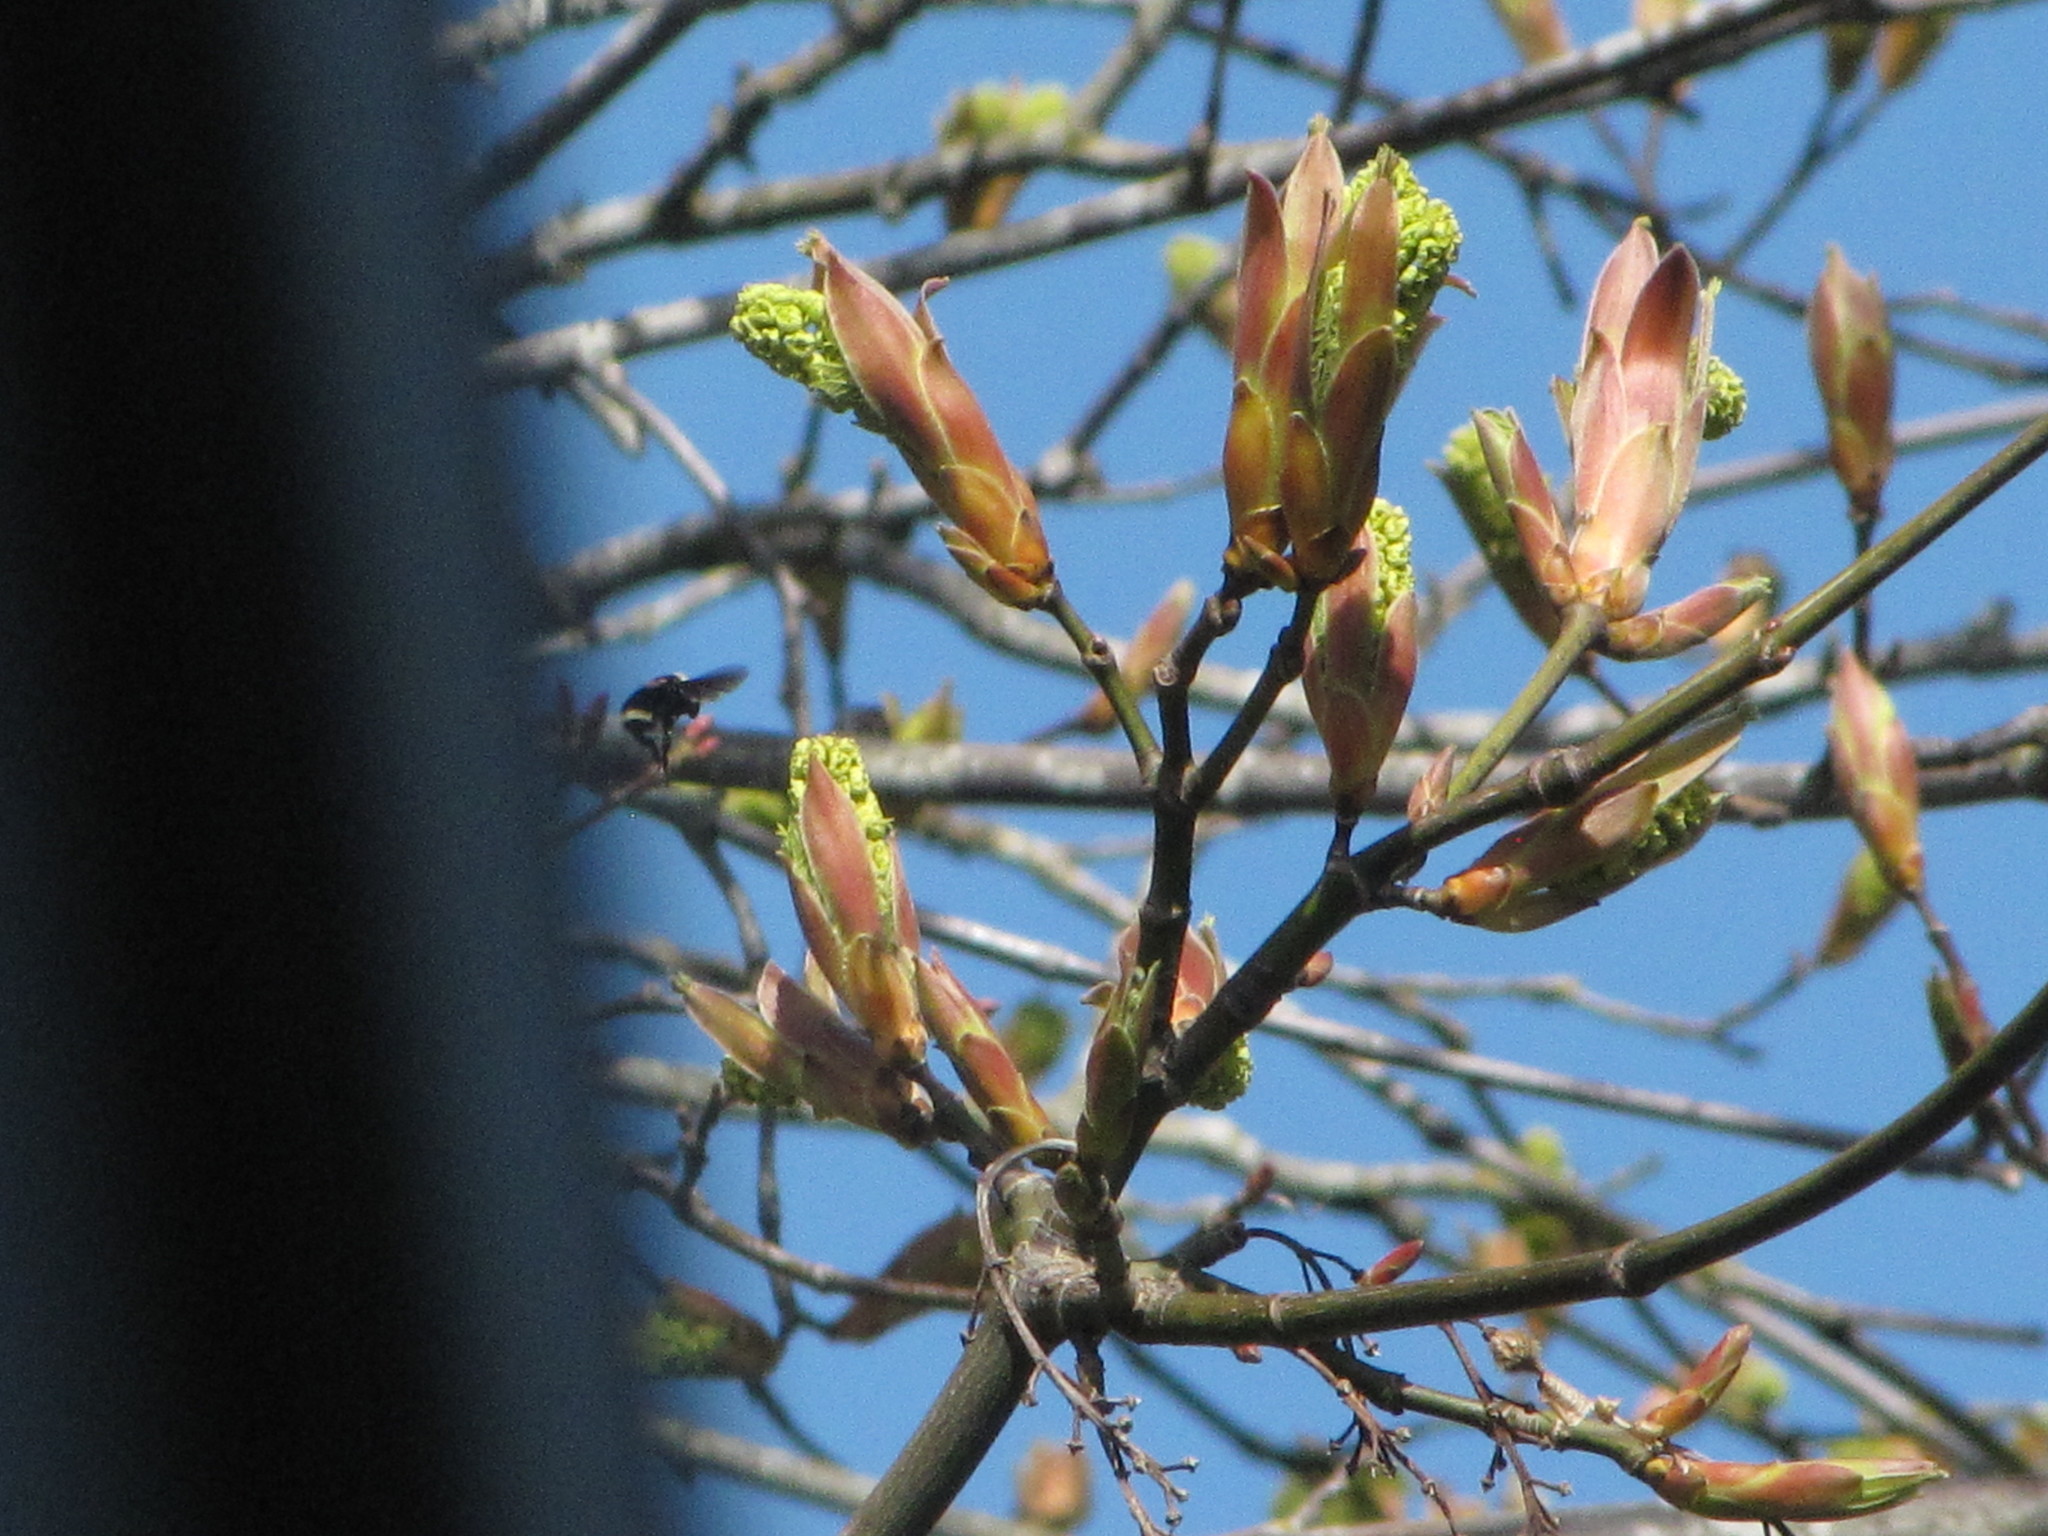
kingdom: Animalia
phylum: Arthropoda
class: Insecta
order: Hymenoptera
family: Apidae
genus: Bombus
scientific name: Bombus vosnesenskii
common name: Vosnesensky bumble bee
